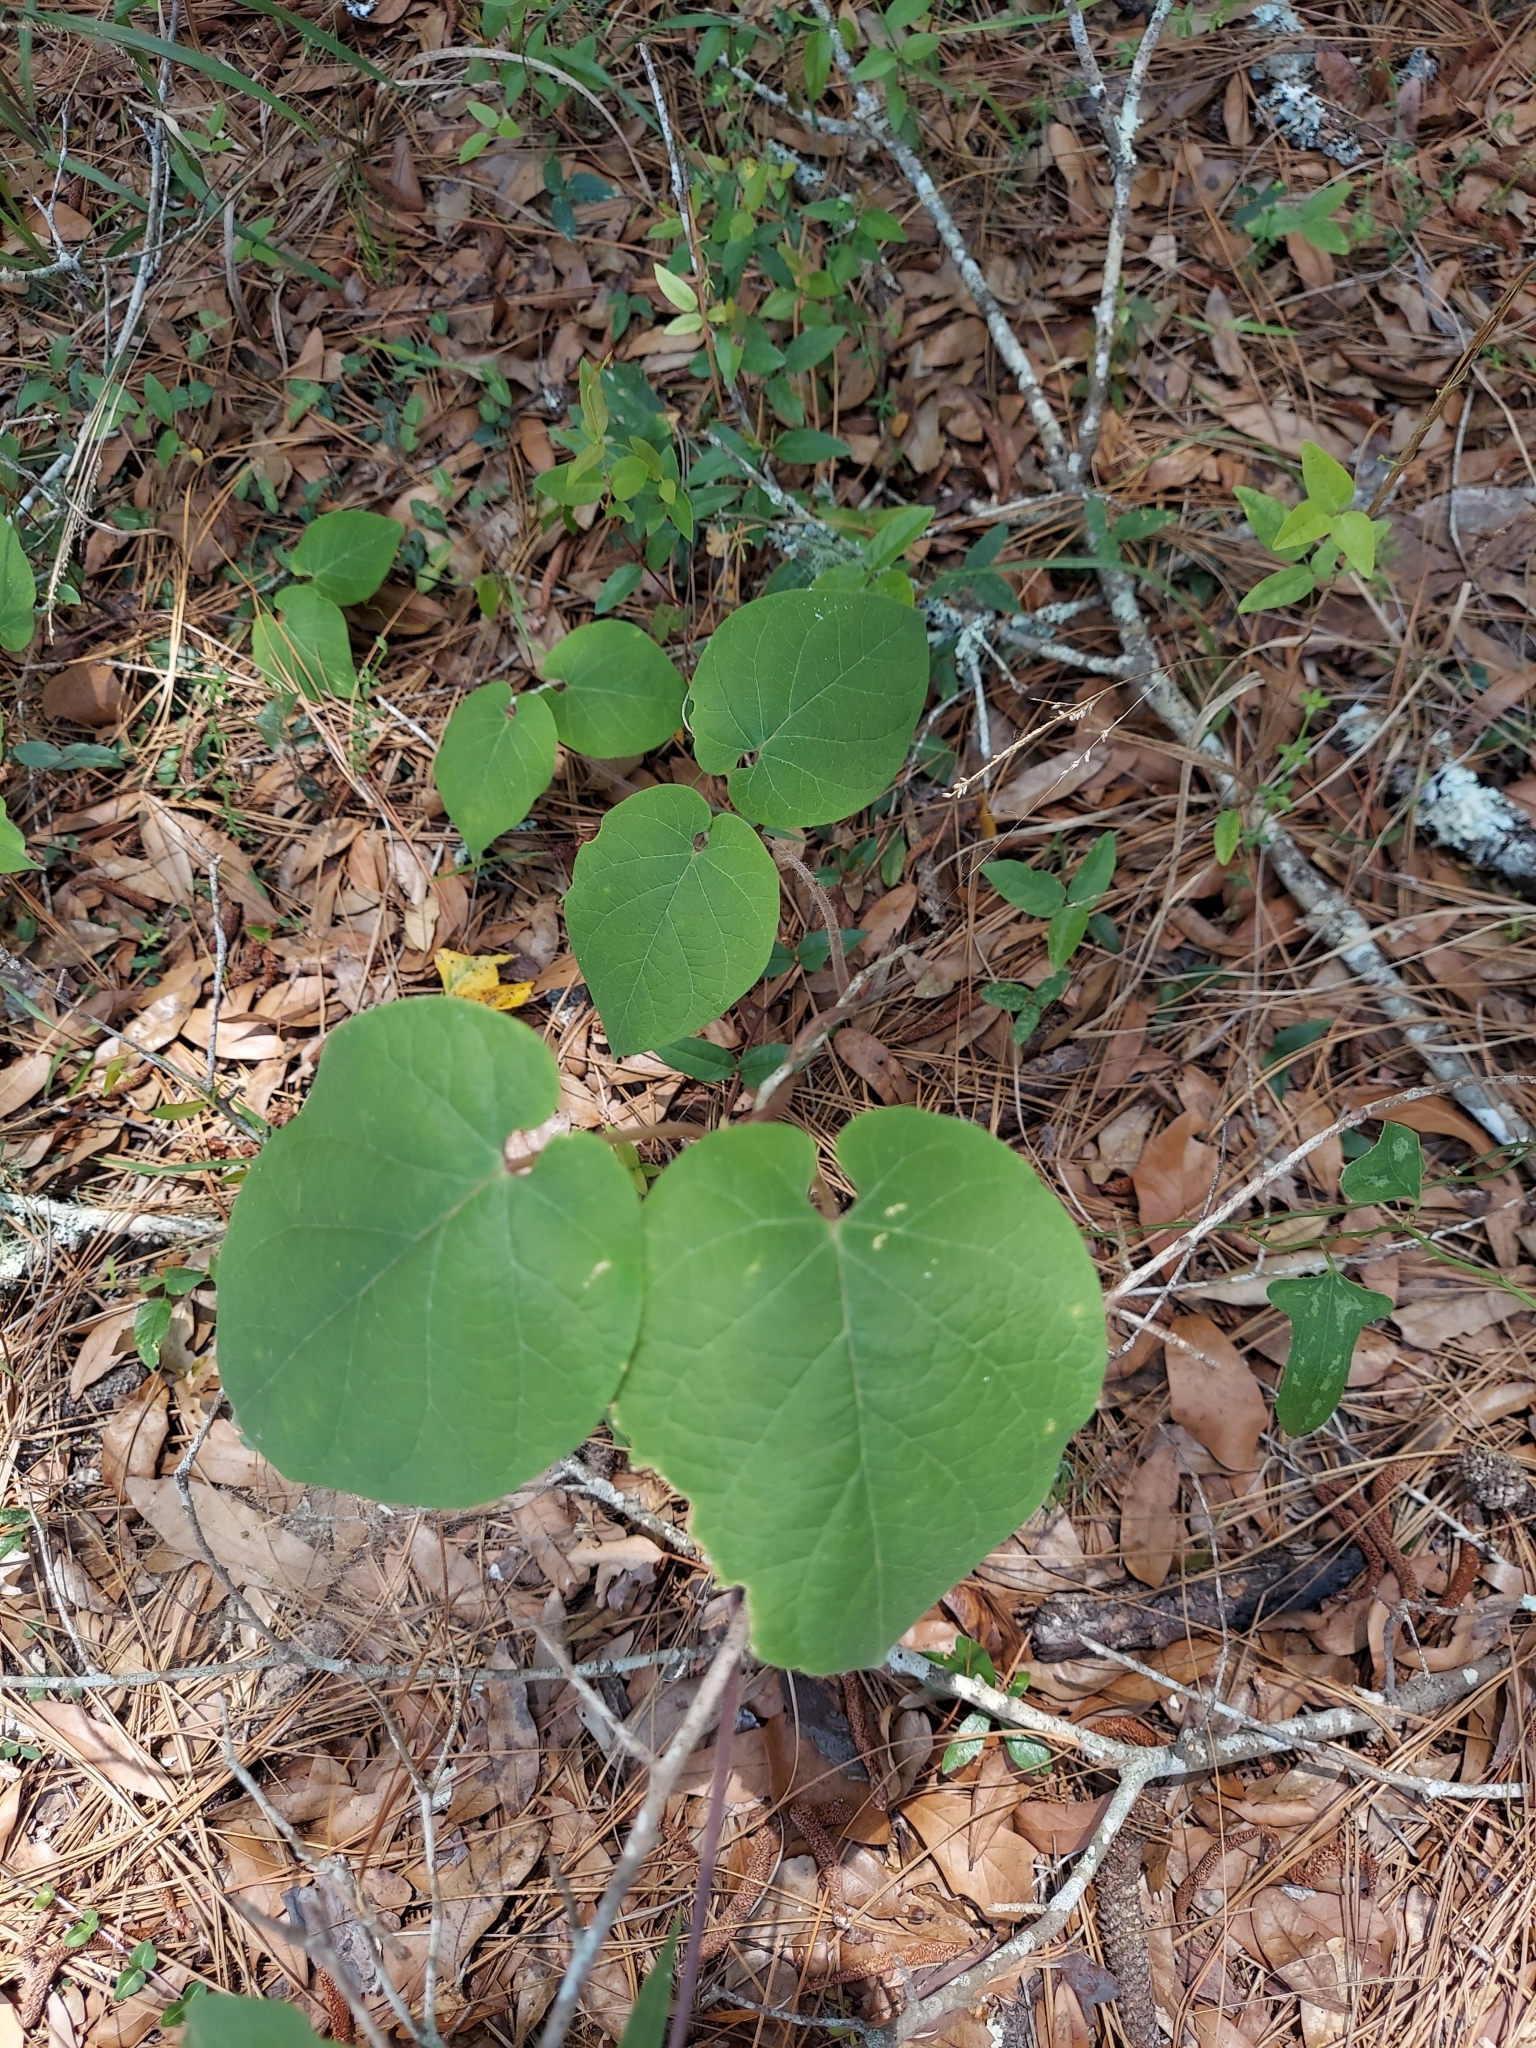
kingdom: Plantae
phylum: Tracheophyta
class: Magnoliopsida
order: Gentianales
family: Apocynaceae
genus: Matelea
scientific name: Matelea floridana
